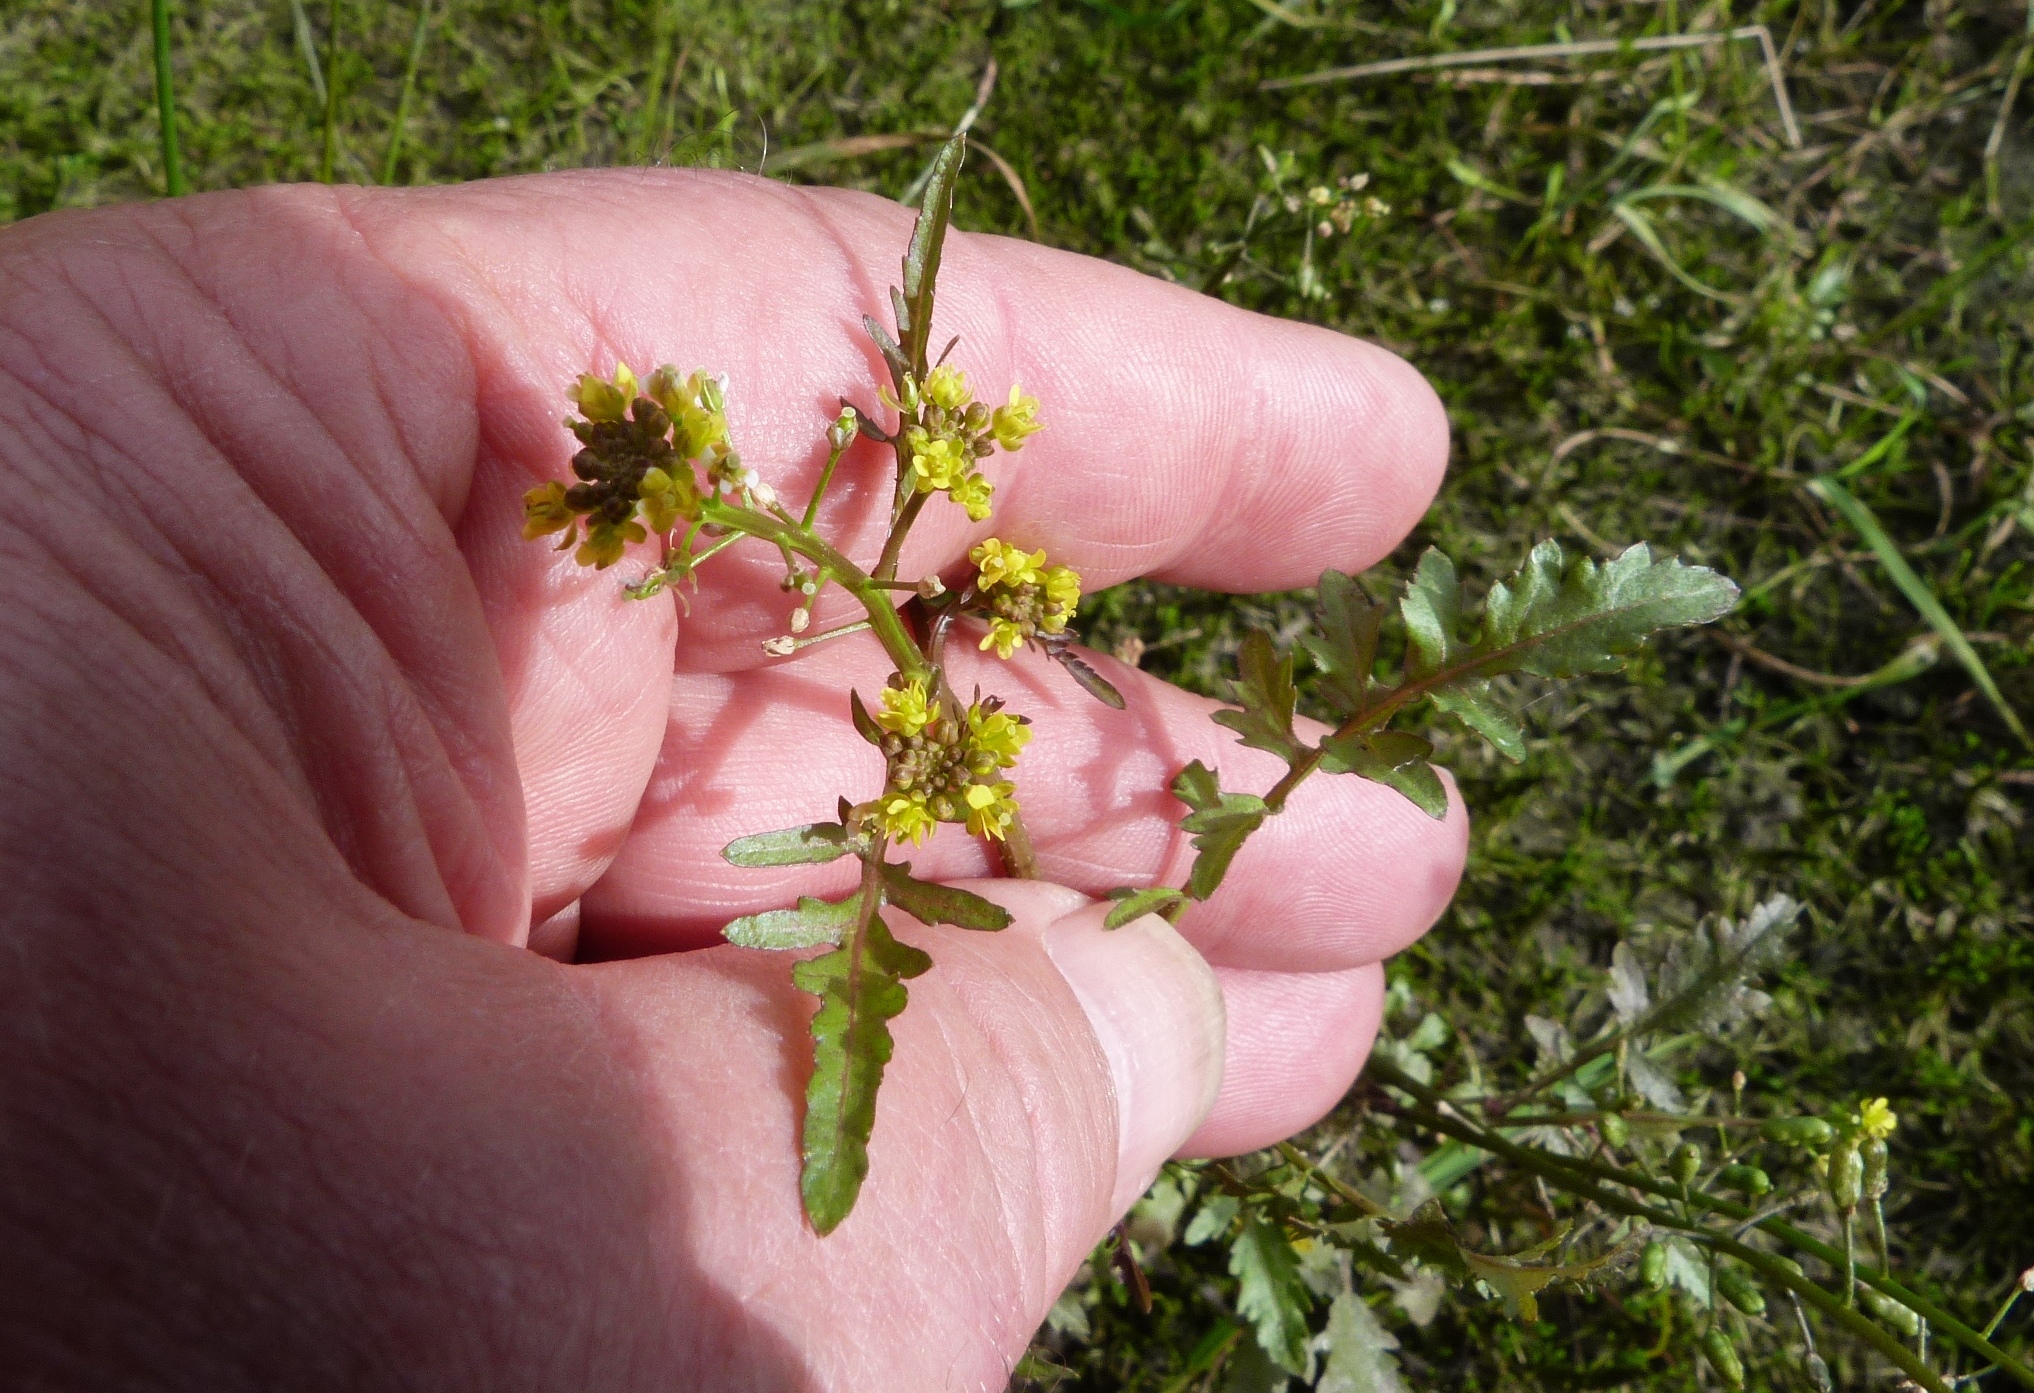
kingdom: Plantae
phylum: Tracheophyta
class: Magnoliopsida
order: Brassicales
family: Brassicaceae
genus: Rorippa
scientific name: Rorippa palustris
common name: Marsh yellow-cress
